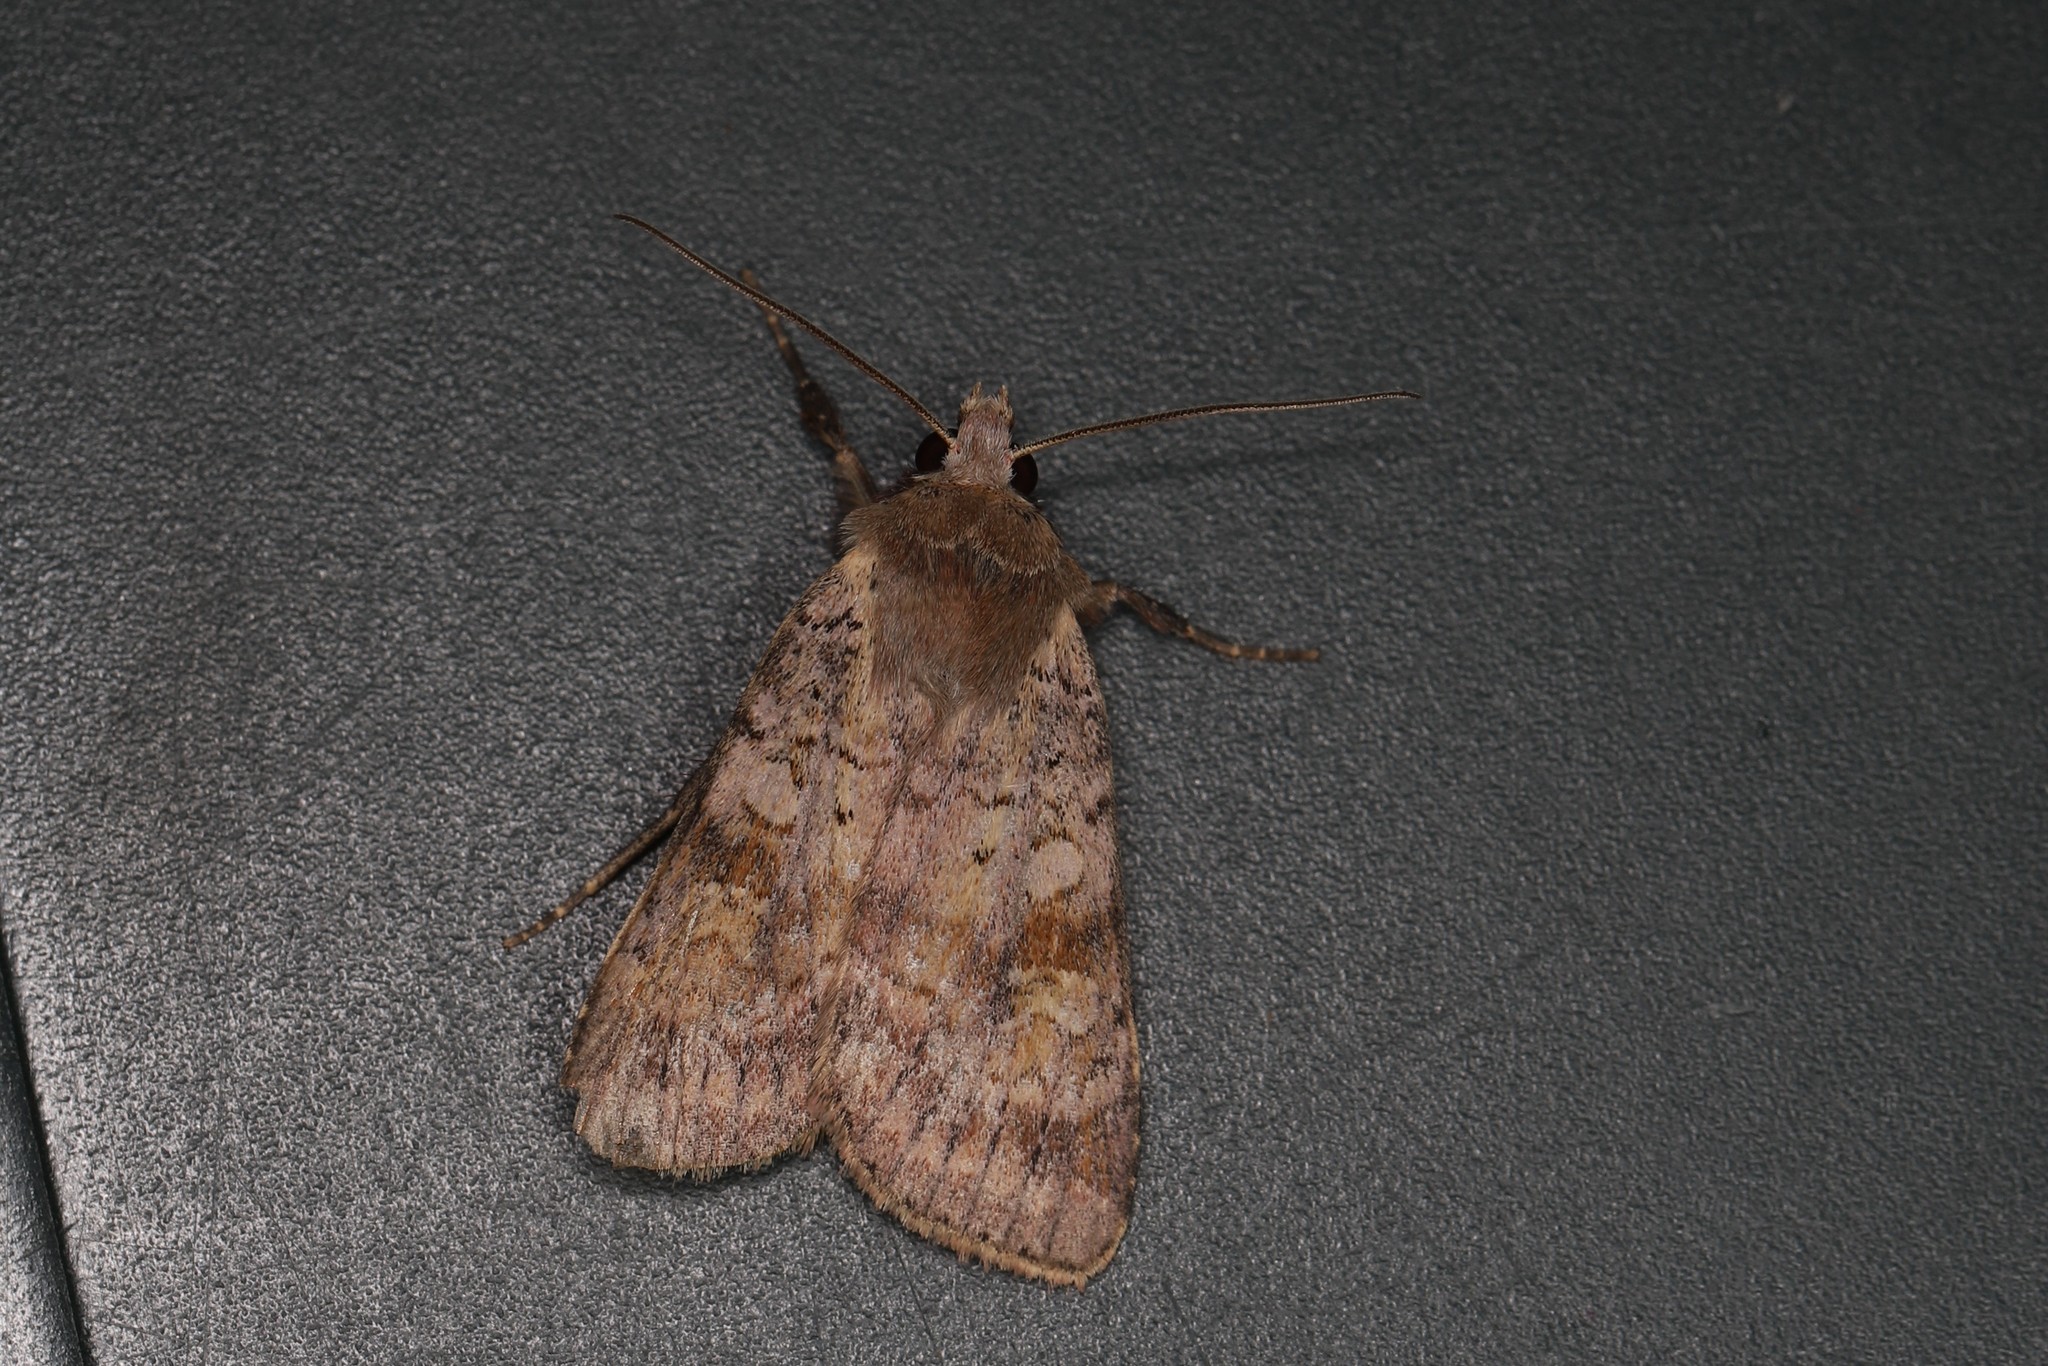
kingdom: Animalia
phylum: Arthropoda
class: Insecta
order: Lepidoptera
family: Noctuidae
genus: Diarsia
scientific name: Diarsia mendica
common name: Ingrailed clay
